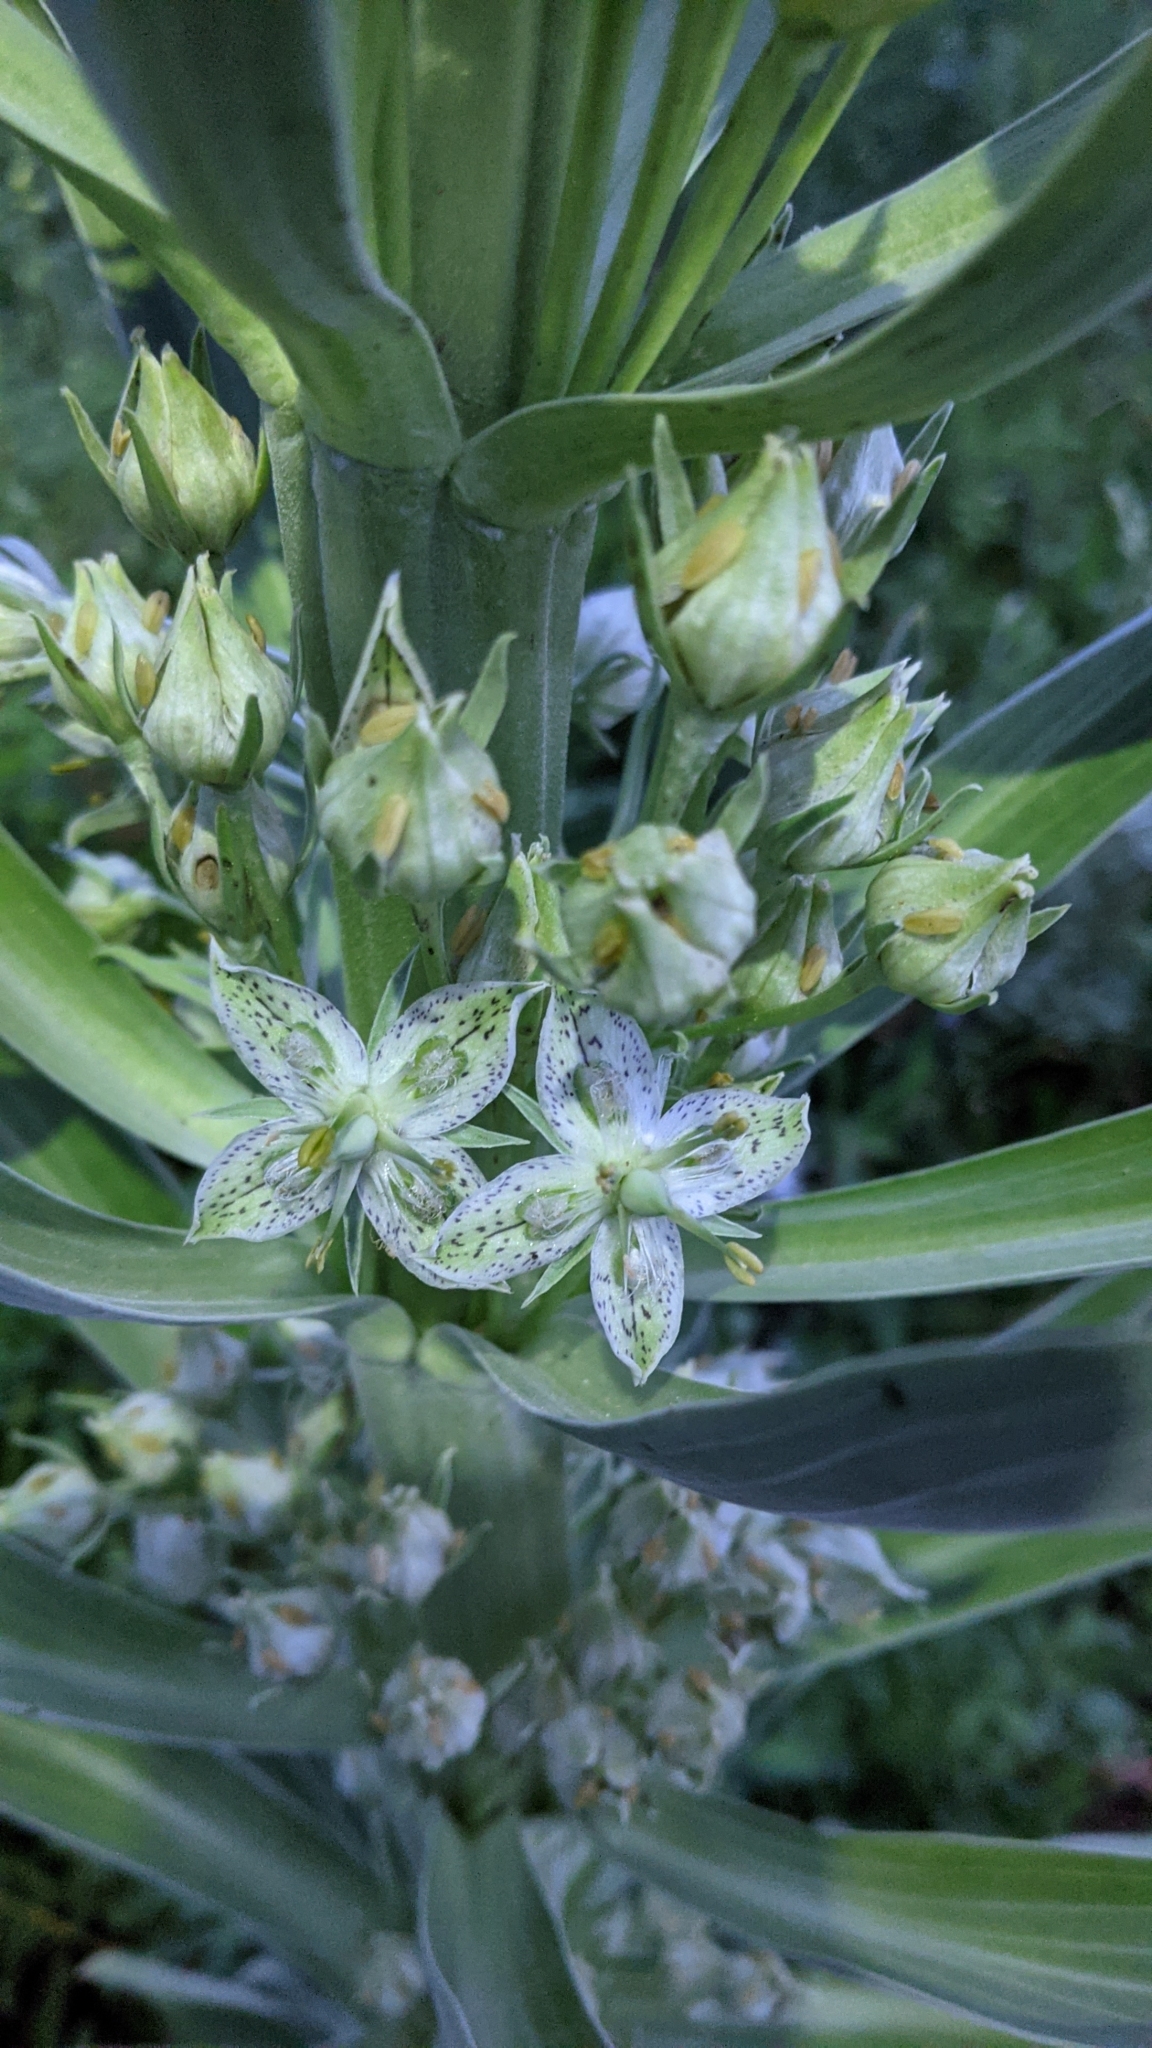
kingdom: Plantae
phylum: Tracheophyta
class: Magnoliopsida
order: Gentianales
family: Gentianaceae
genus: Frasera
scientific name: Frasera speciosa
